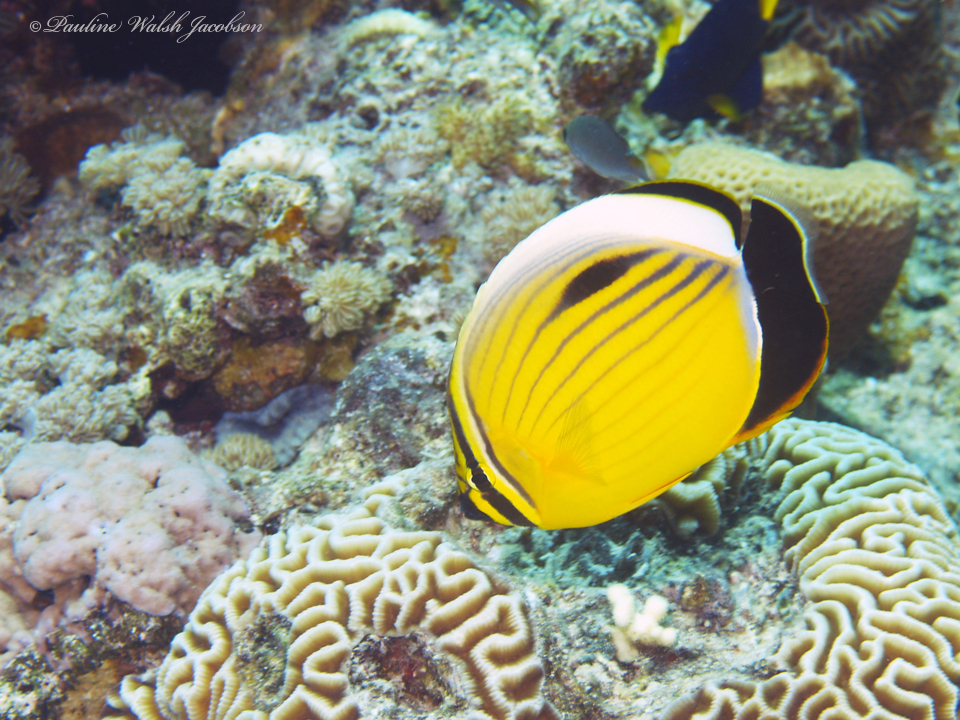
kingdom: Animalia
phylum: Chordata
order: Perciformes
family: Chaetodontidae
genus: Chaetodon
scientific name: Chaetodon austriacus
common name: Exquisite butterflyfish
